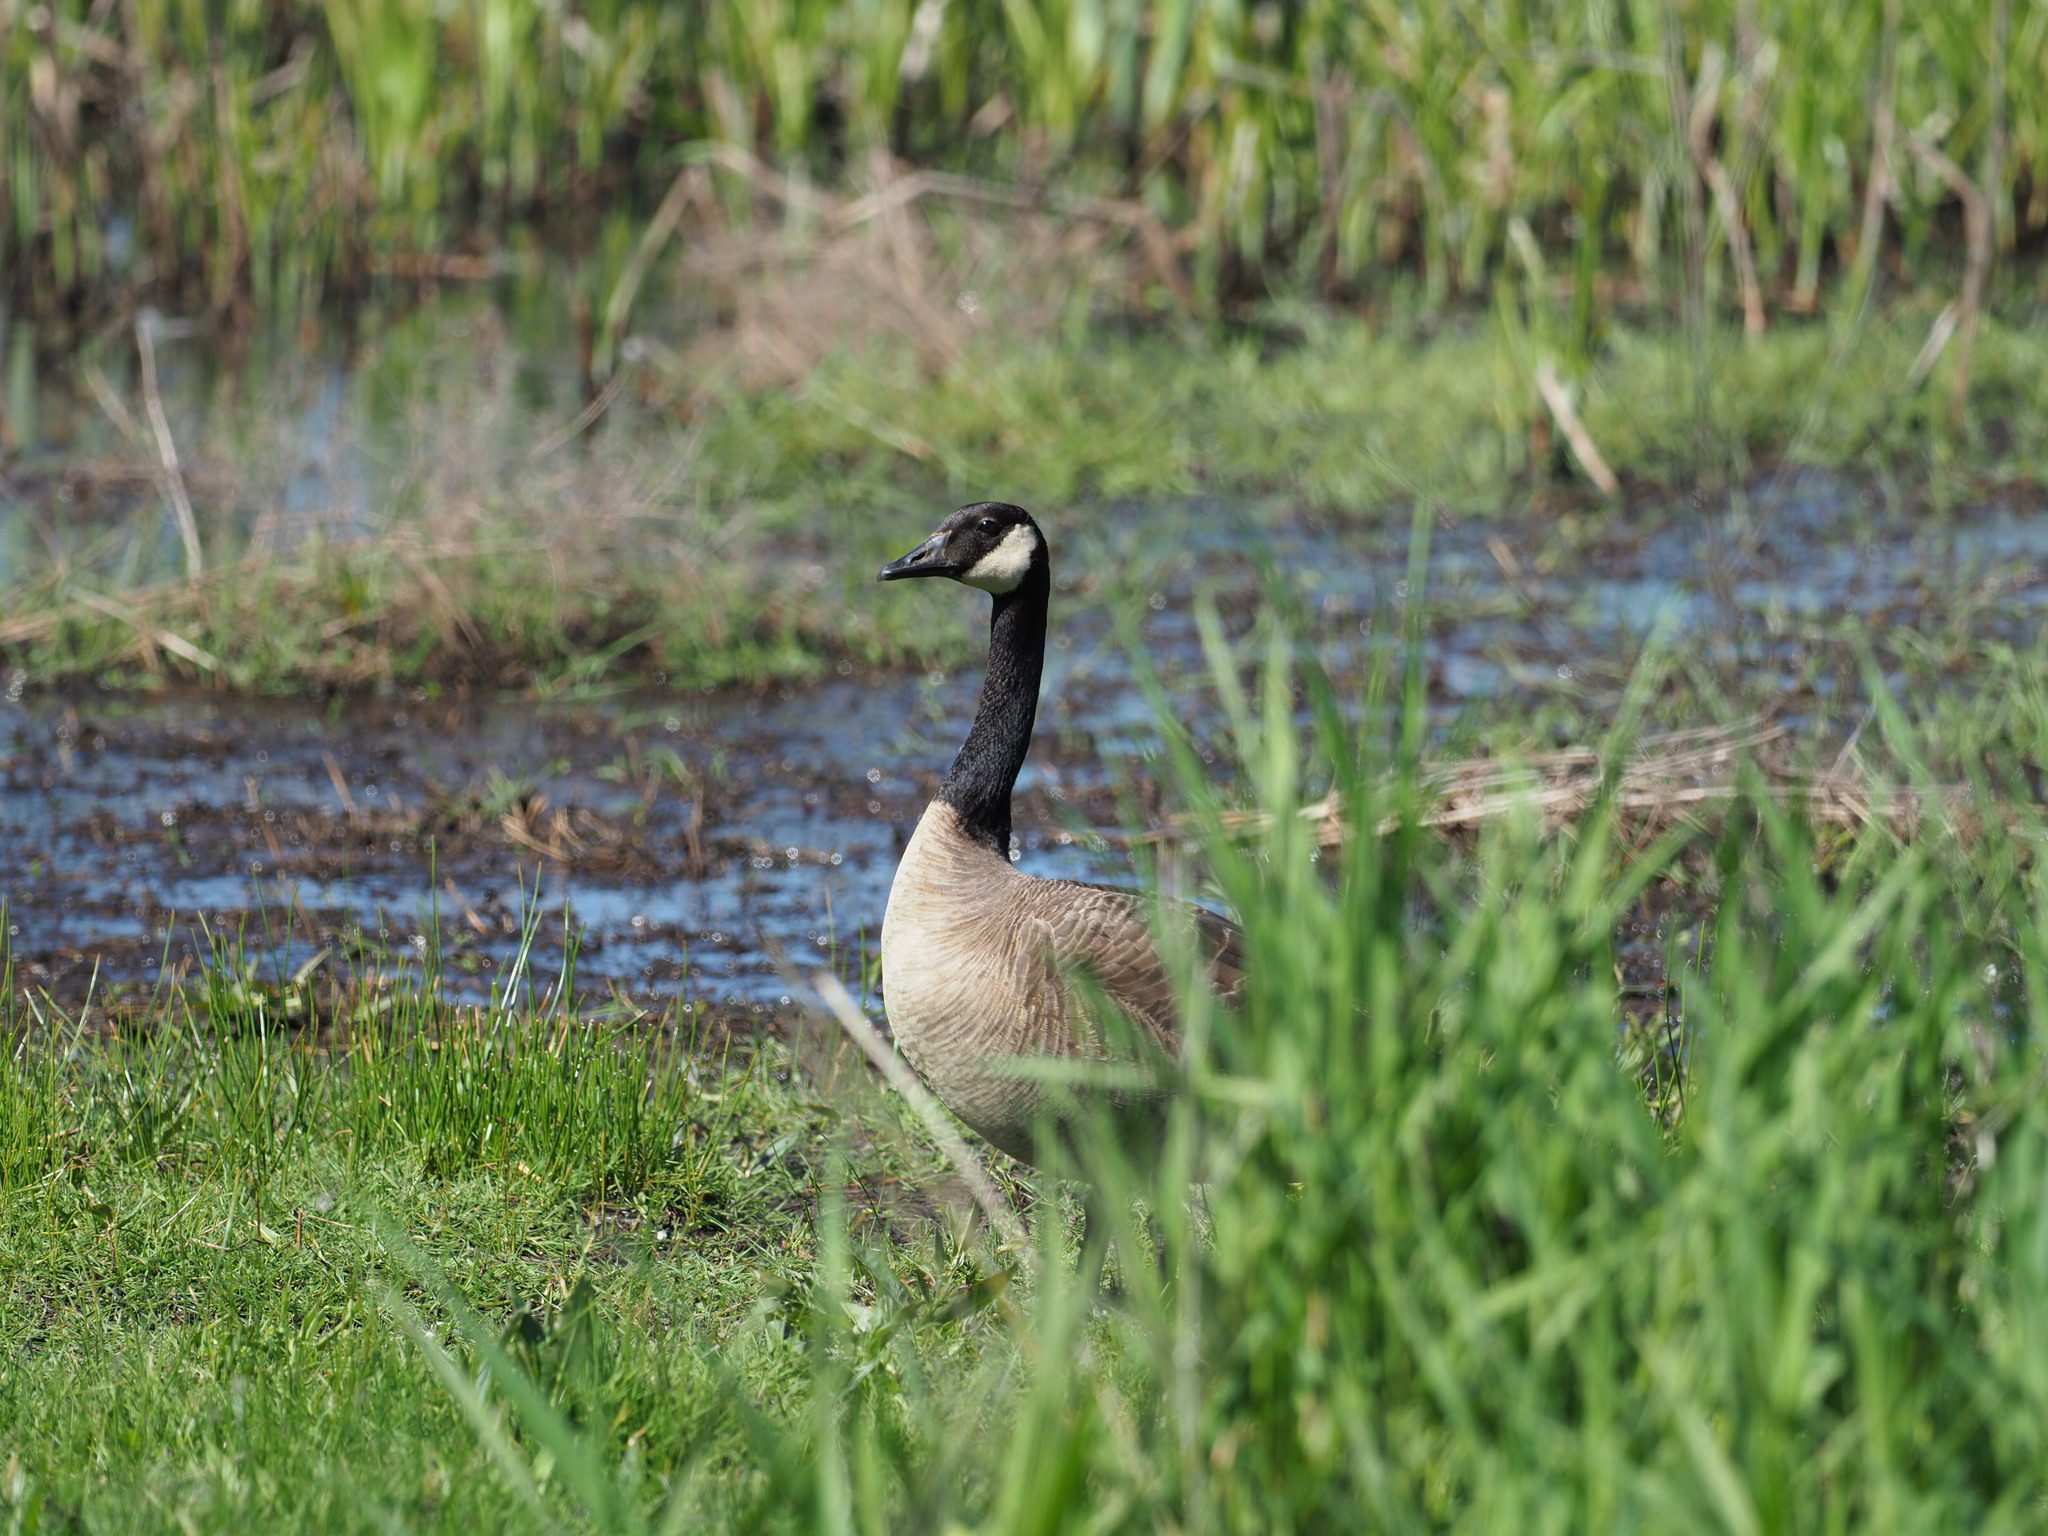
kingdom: Animalia
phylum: Chordata
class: Aves
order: Anseriformes
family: Anatidae
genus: Branta
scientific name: Branta canadensis
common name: Canada goose
